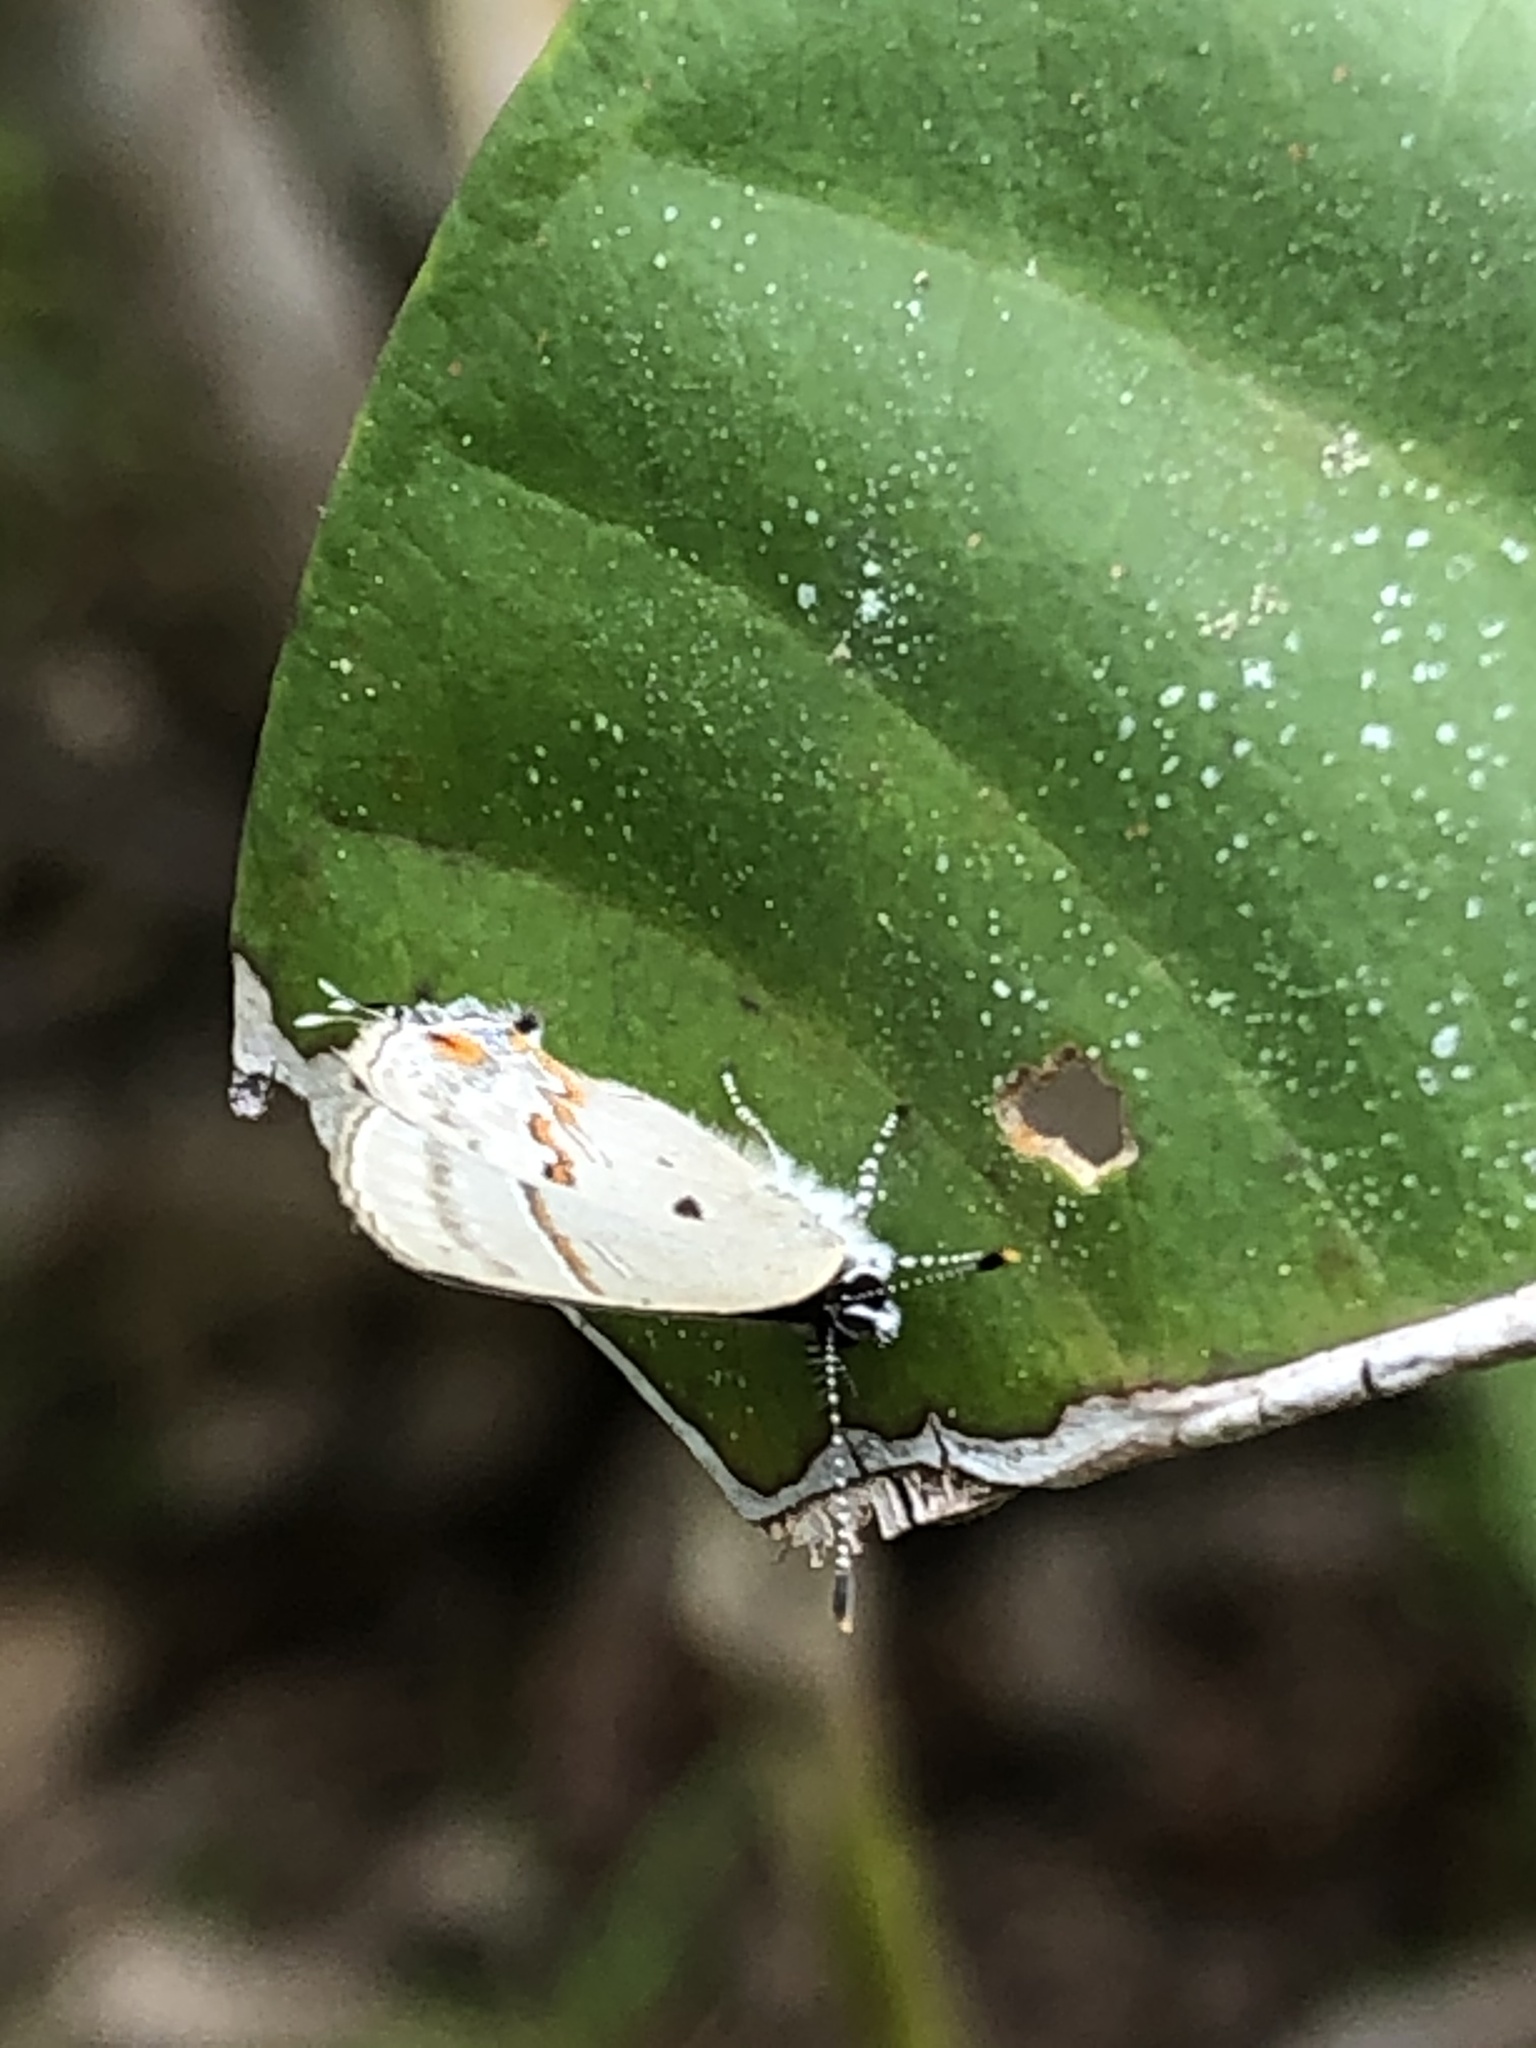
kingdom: Animalia
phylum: Arthropoda
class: Insecta
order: Lepidoptera
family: Lycaenidae
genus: Thecla
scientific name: Thecla alda
